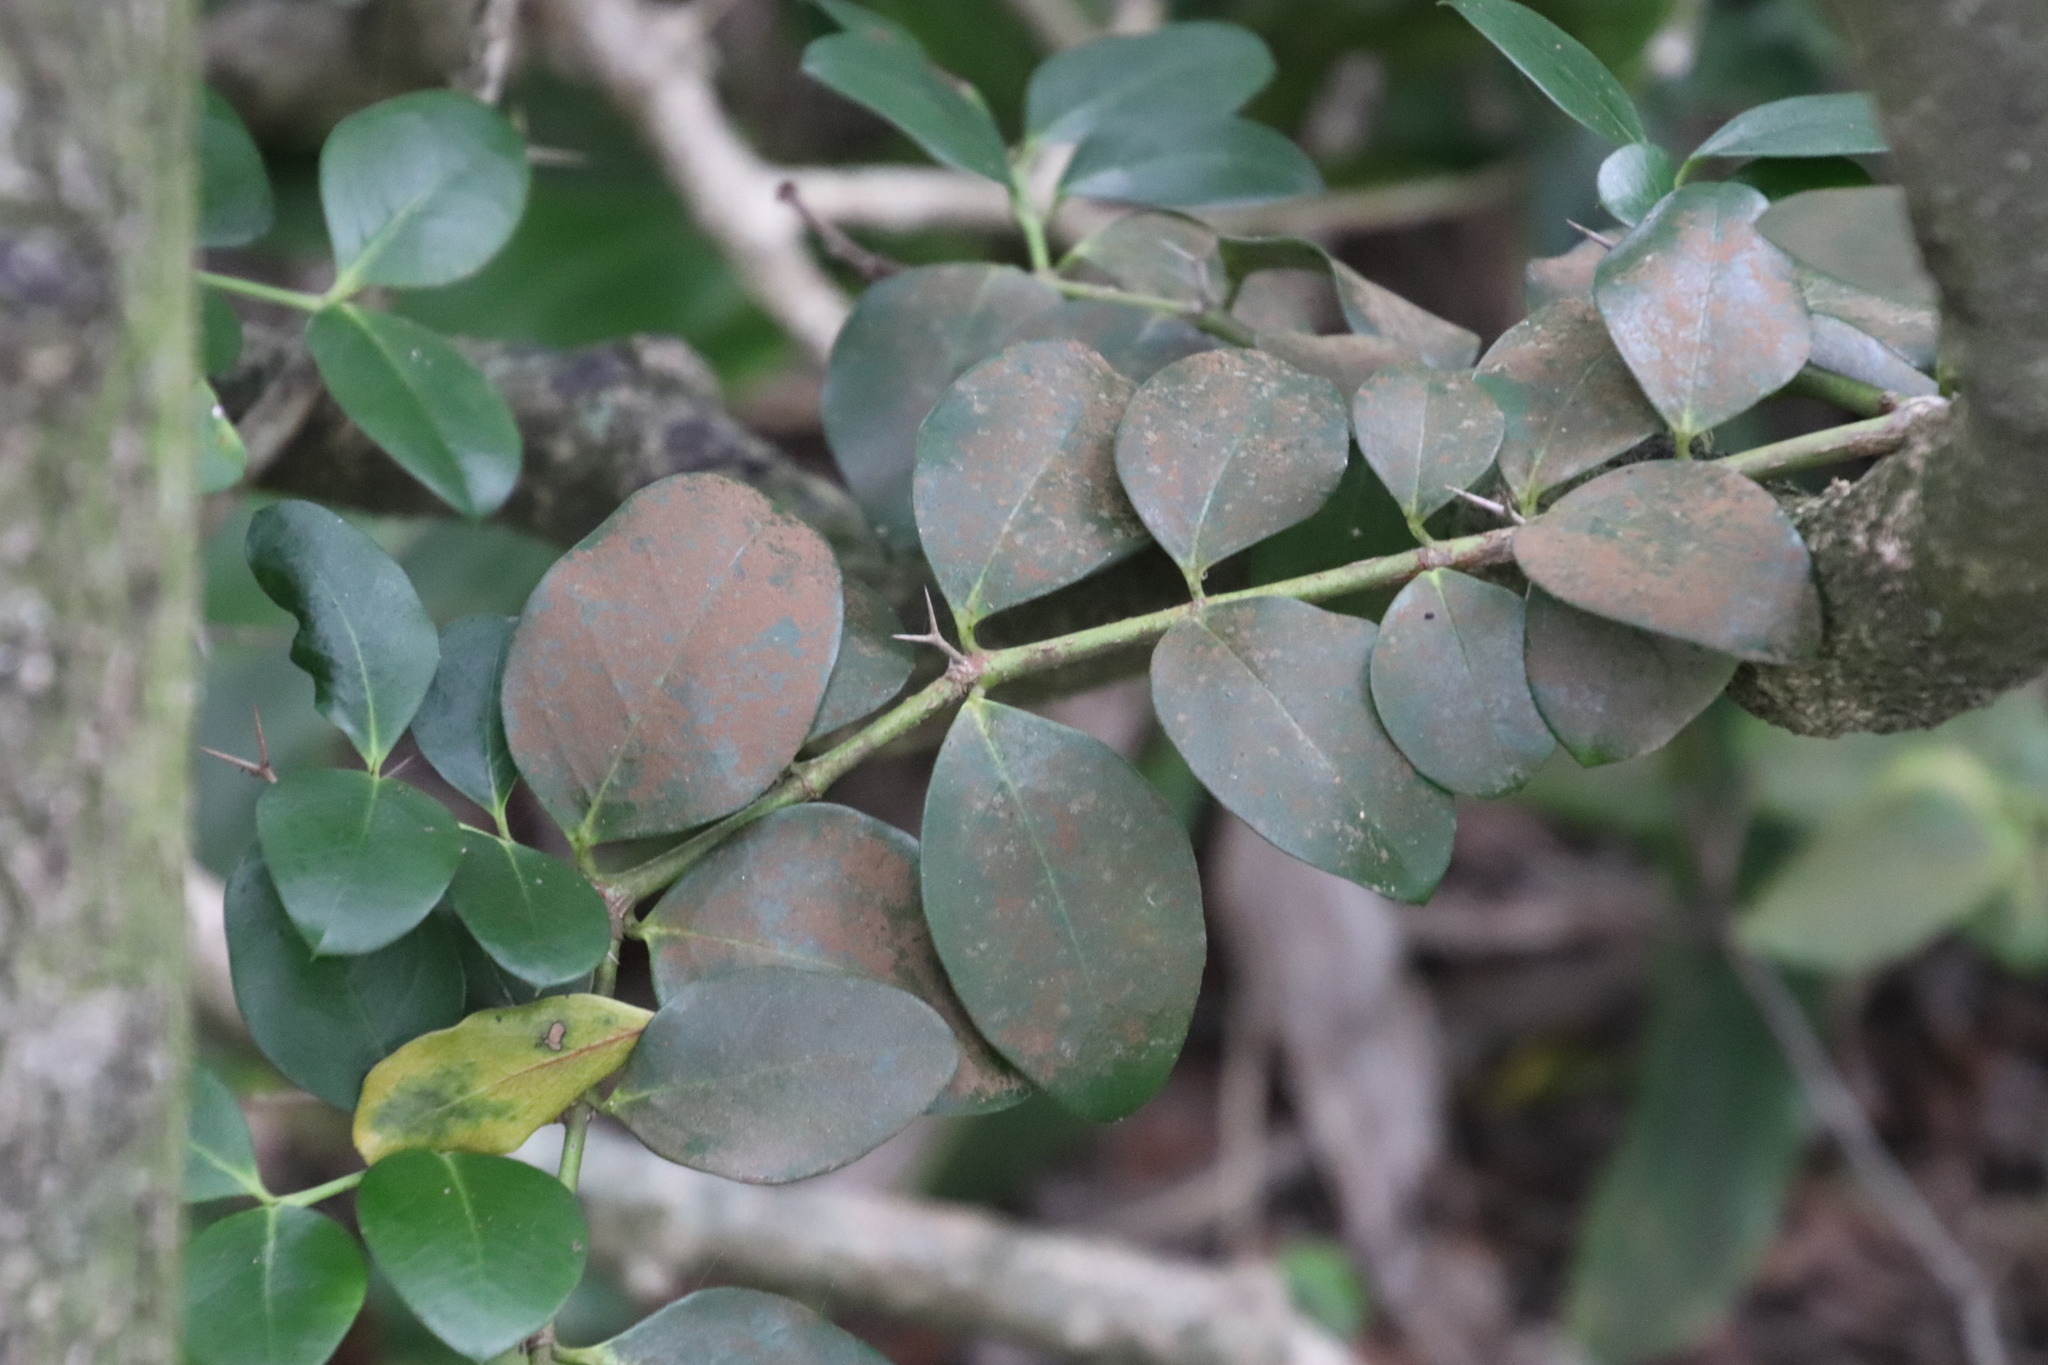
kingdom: Plantae
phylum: Tracheophyta
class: Magnoliopsida
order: Gentianales
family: Apocynaceae
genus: Carissa
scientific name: Carissa macrocarpa
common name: Natal plum
